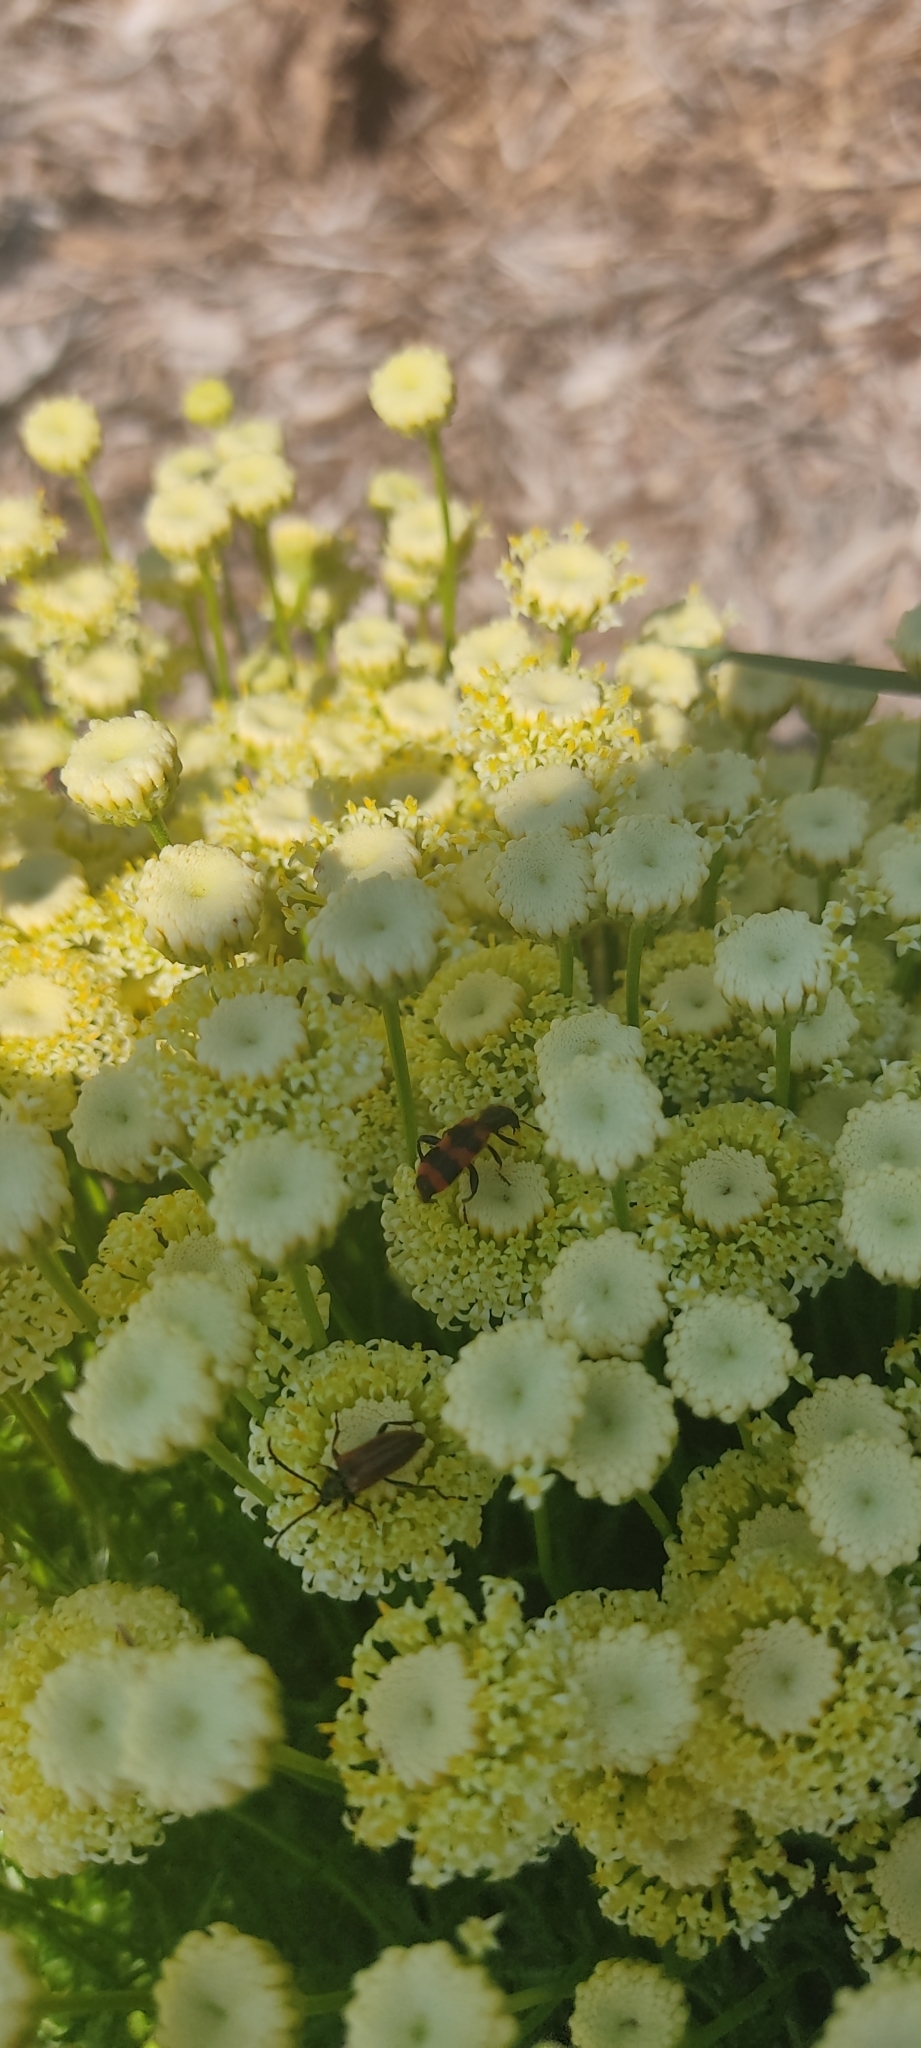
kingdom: Animalia
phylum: Arthropoda
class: Insecta
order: Coleoptera
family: Cerambycidae
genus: Pseudovadonia
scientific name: Pseudovadonia livida
